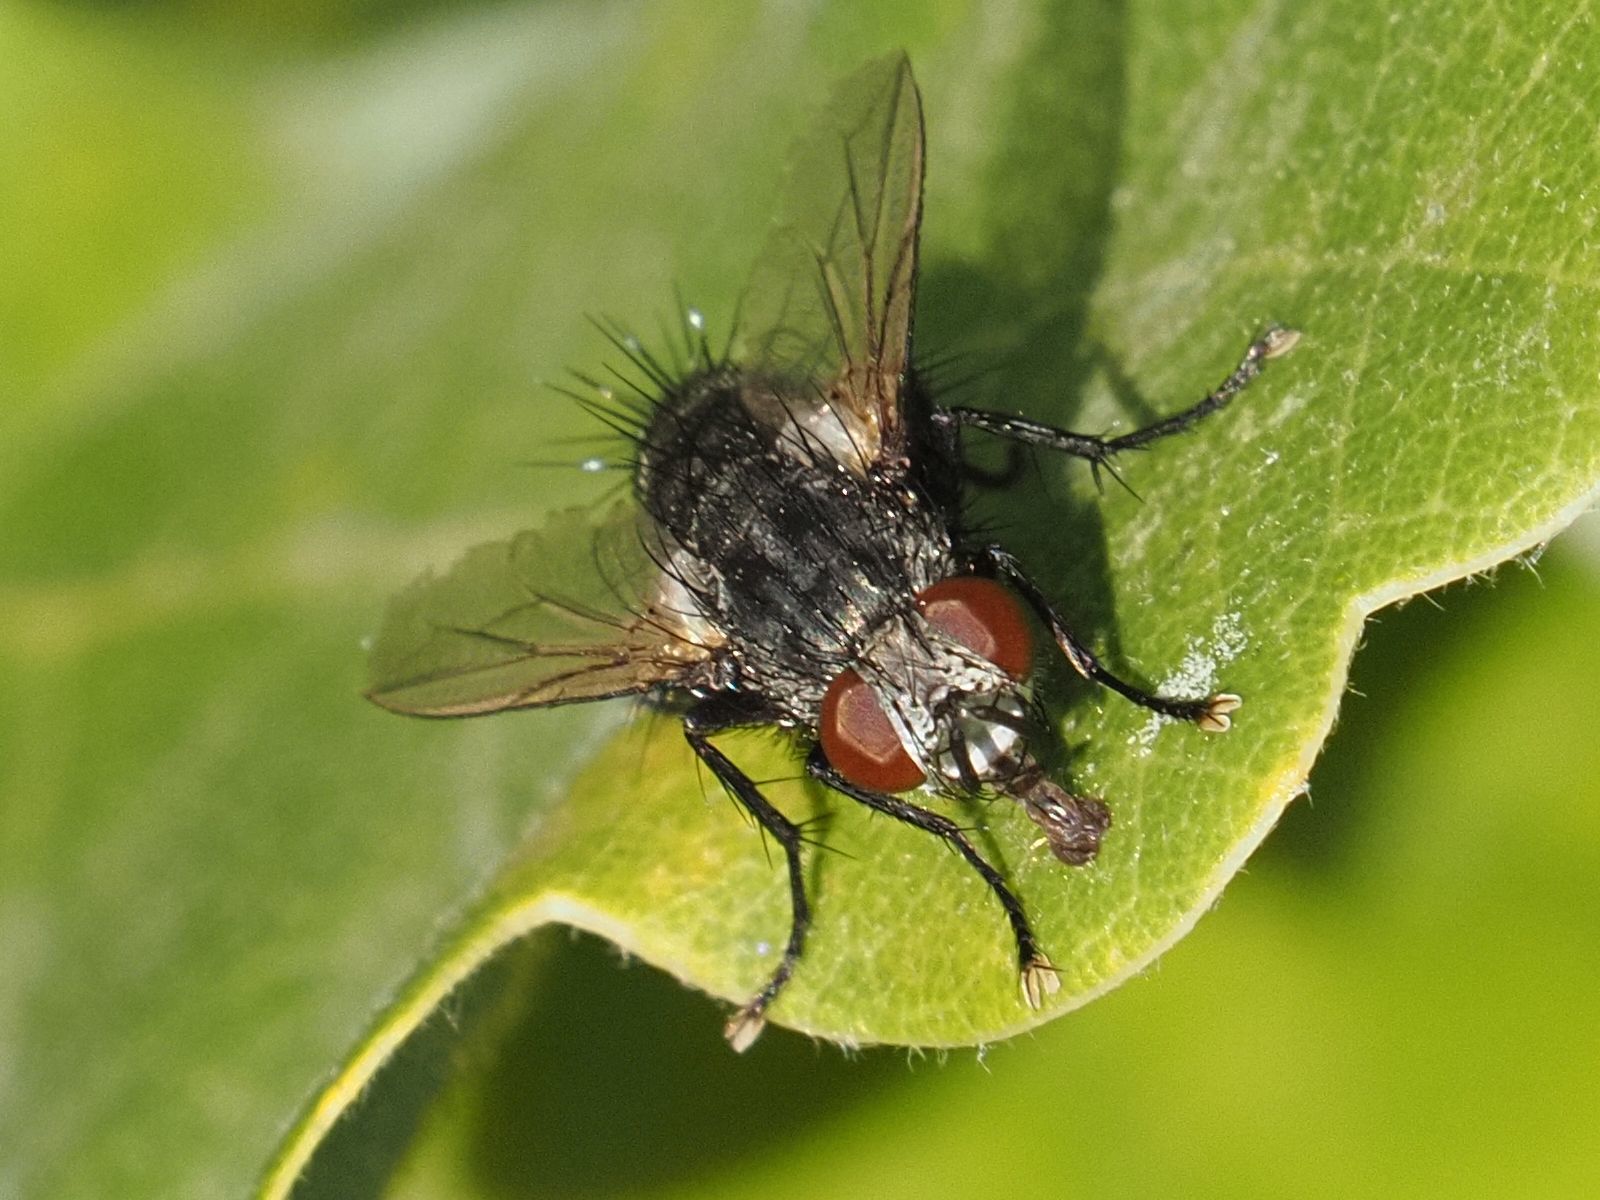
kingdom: Animalia
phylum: Arthropoda
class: Insecta
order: Diptera
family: Tachinidae
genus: Voria
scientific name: Voria ruralis
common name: Parasitic fly
